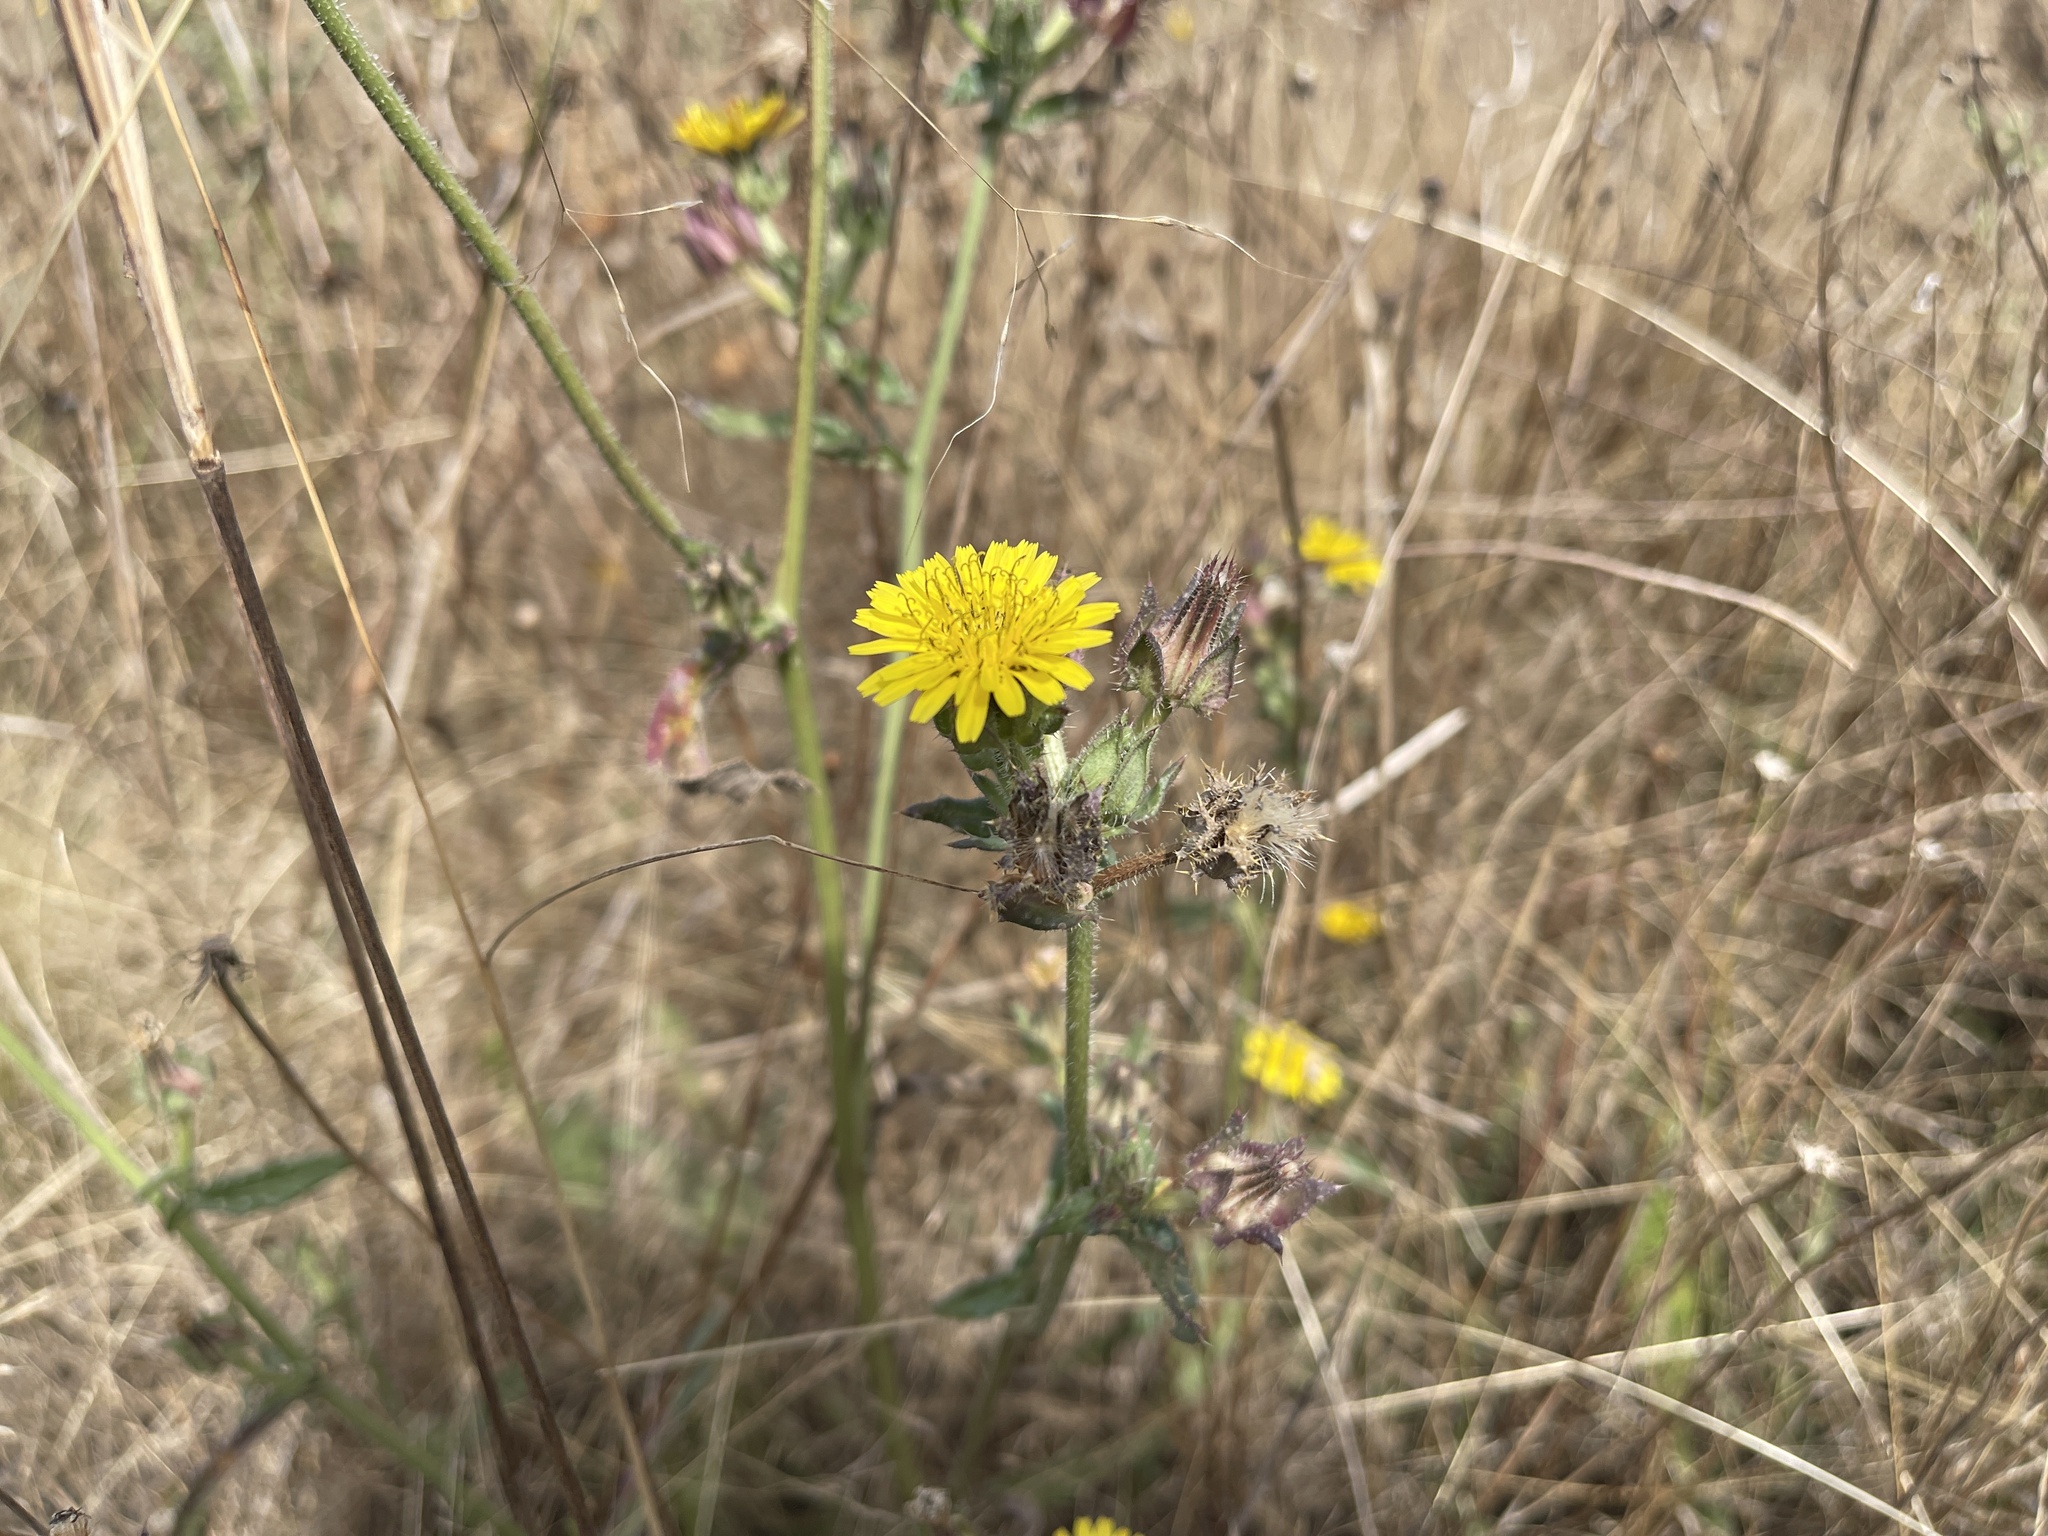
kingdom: Plantae
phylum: Tracheophyta
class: Magnoliopsida
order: Asterales
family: Asteraceae
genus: Helminthotheca
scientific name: Helminthotheca echioides
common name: Ox-tongue
